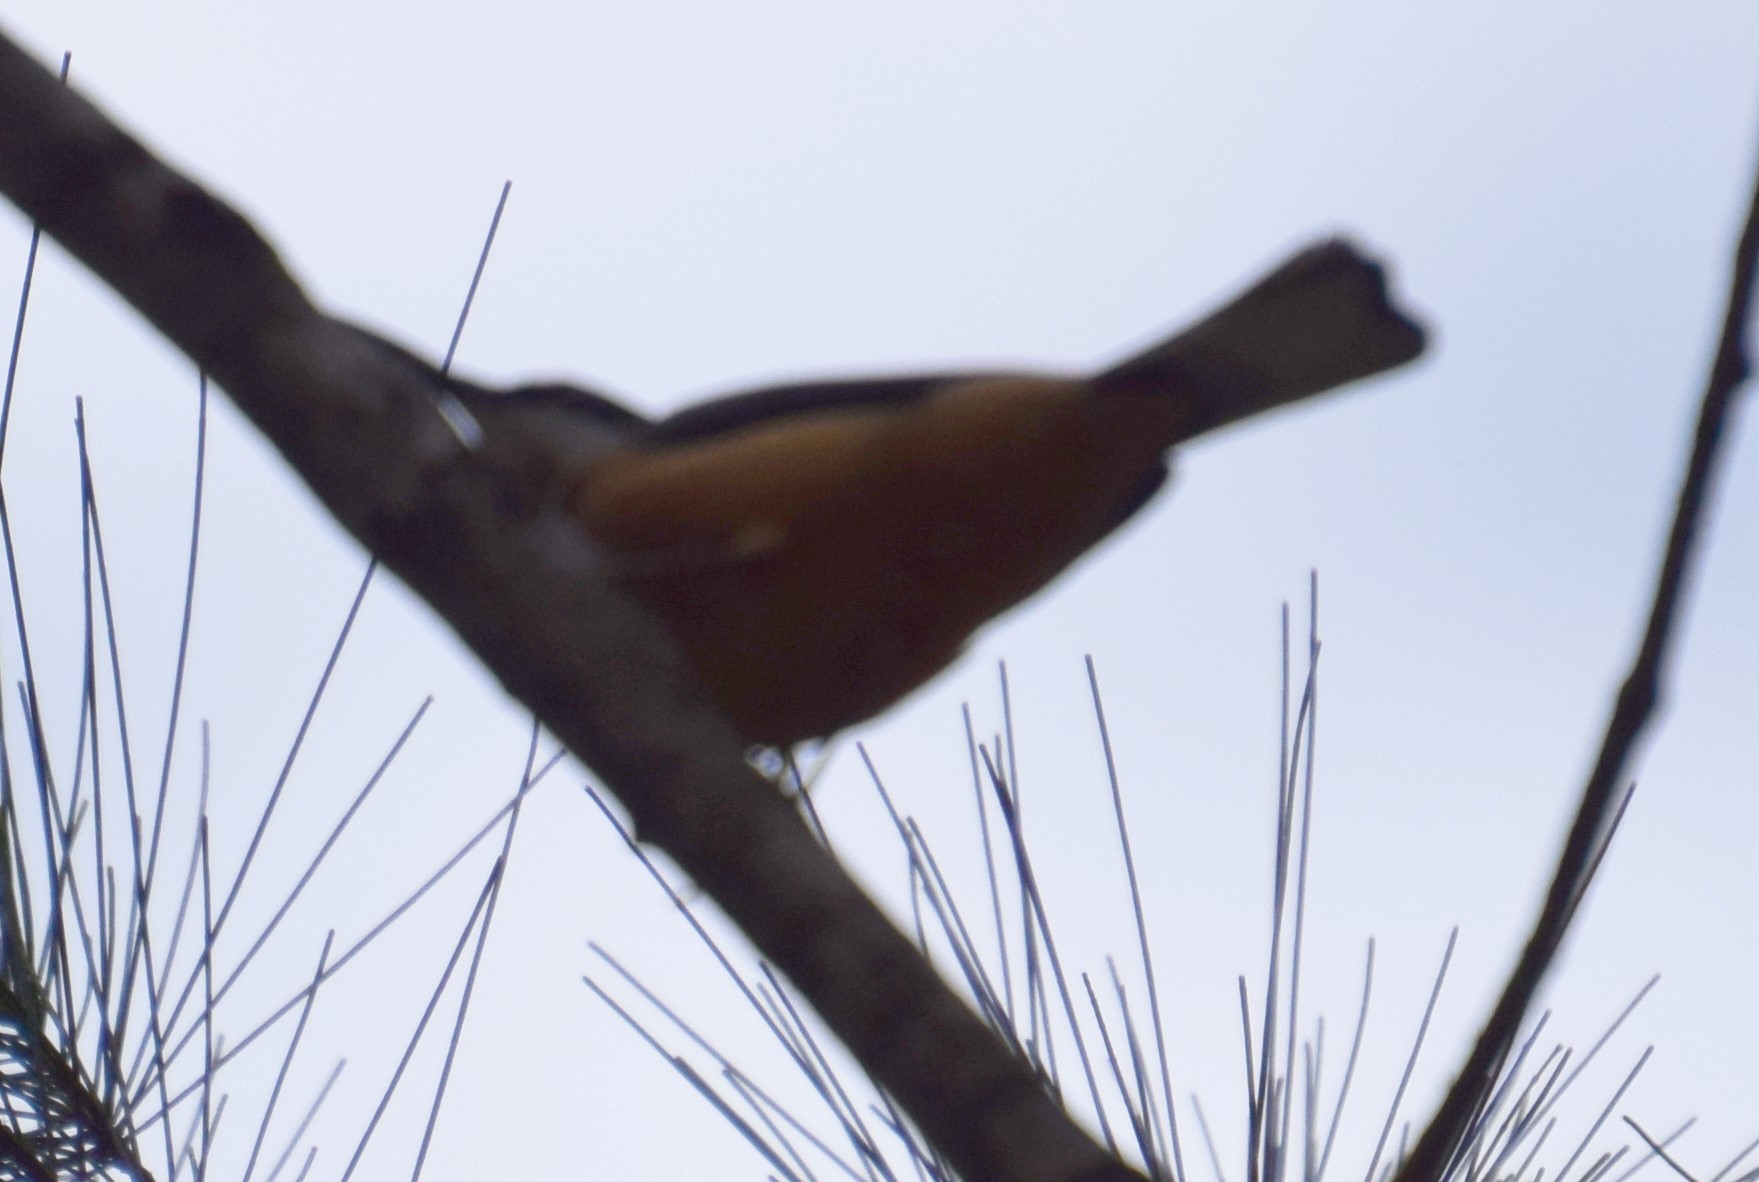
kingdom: Animalia
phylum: Chordata
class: Aves
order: Passeriformes
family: Meliphagidae
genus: Acanthorhynchus
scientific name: Acanthorhynchus tenuirostris
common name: Eastern spinebill
